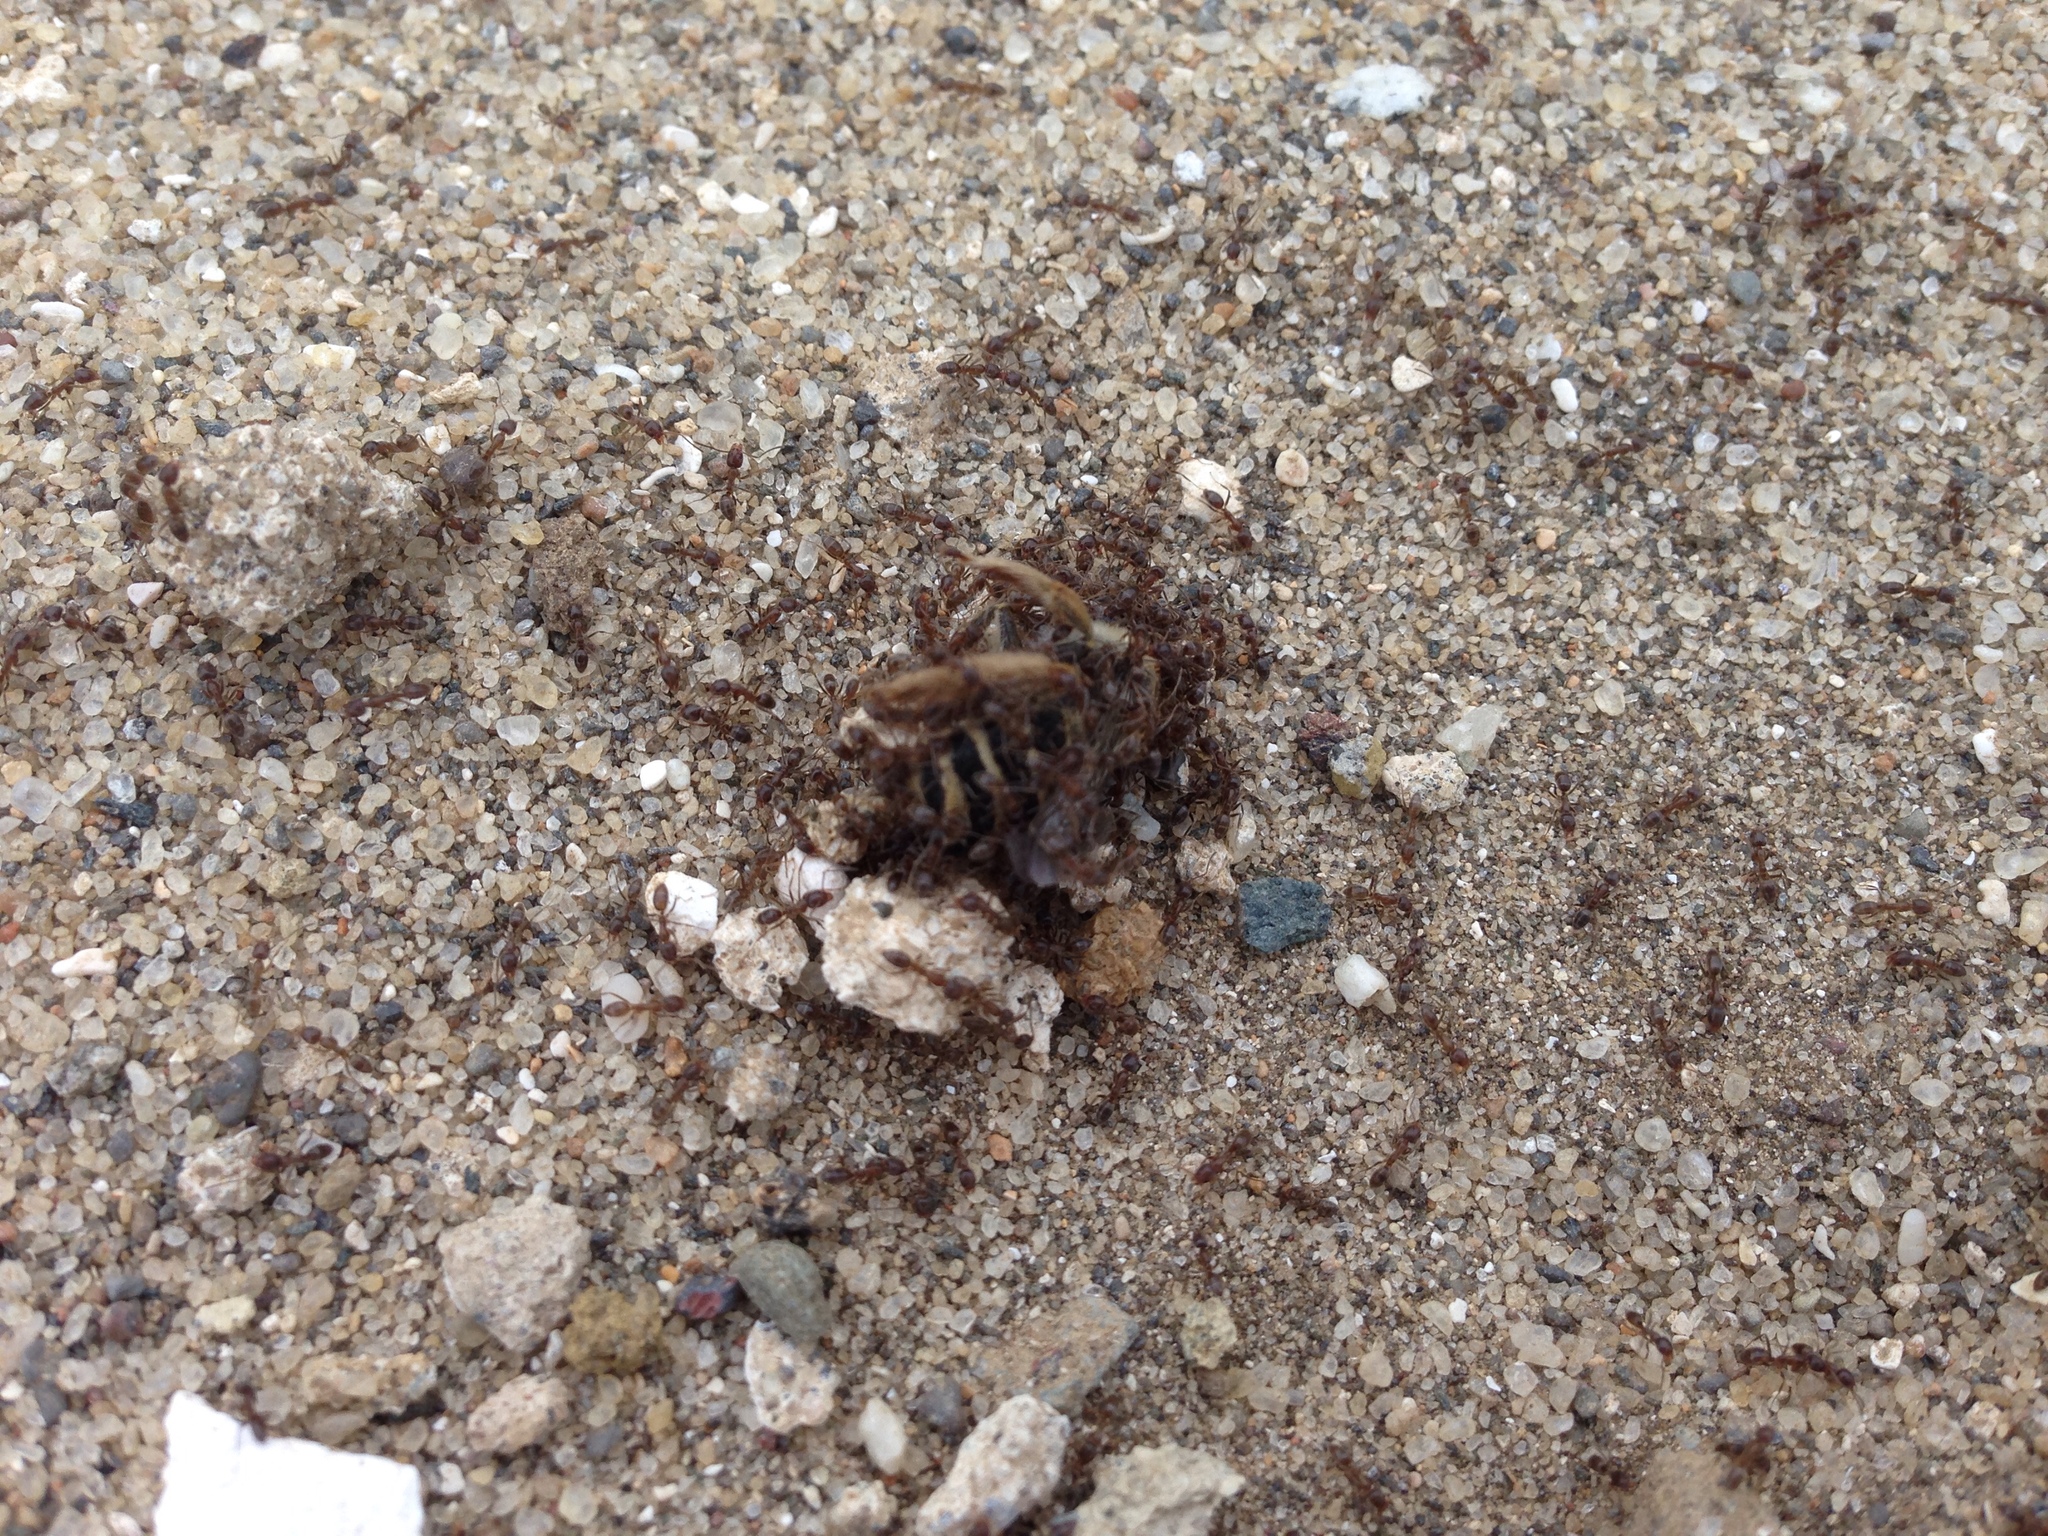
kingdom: Animalia
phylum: Arthropoda
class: Insecta
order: Hymenoptera
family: Formicidae
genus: Linepithema
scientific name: Linepithema humile
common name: Argentine ant
